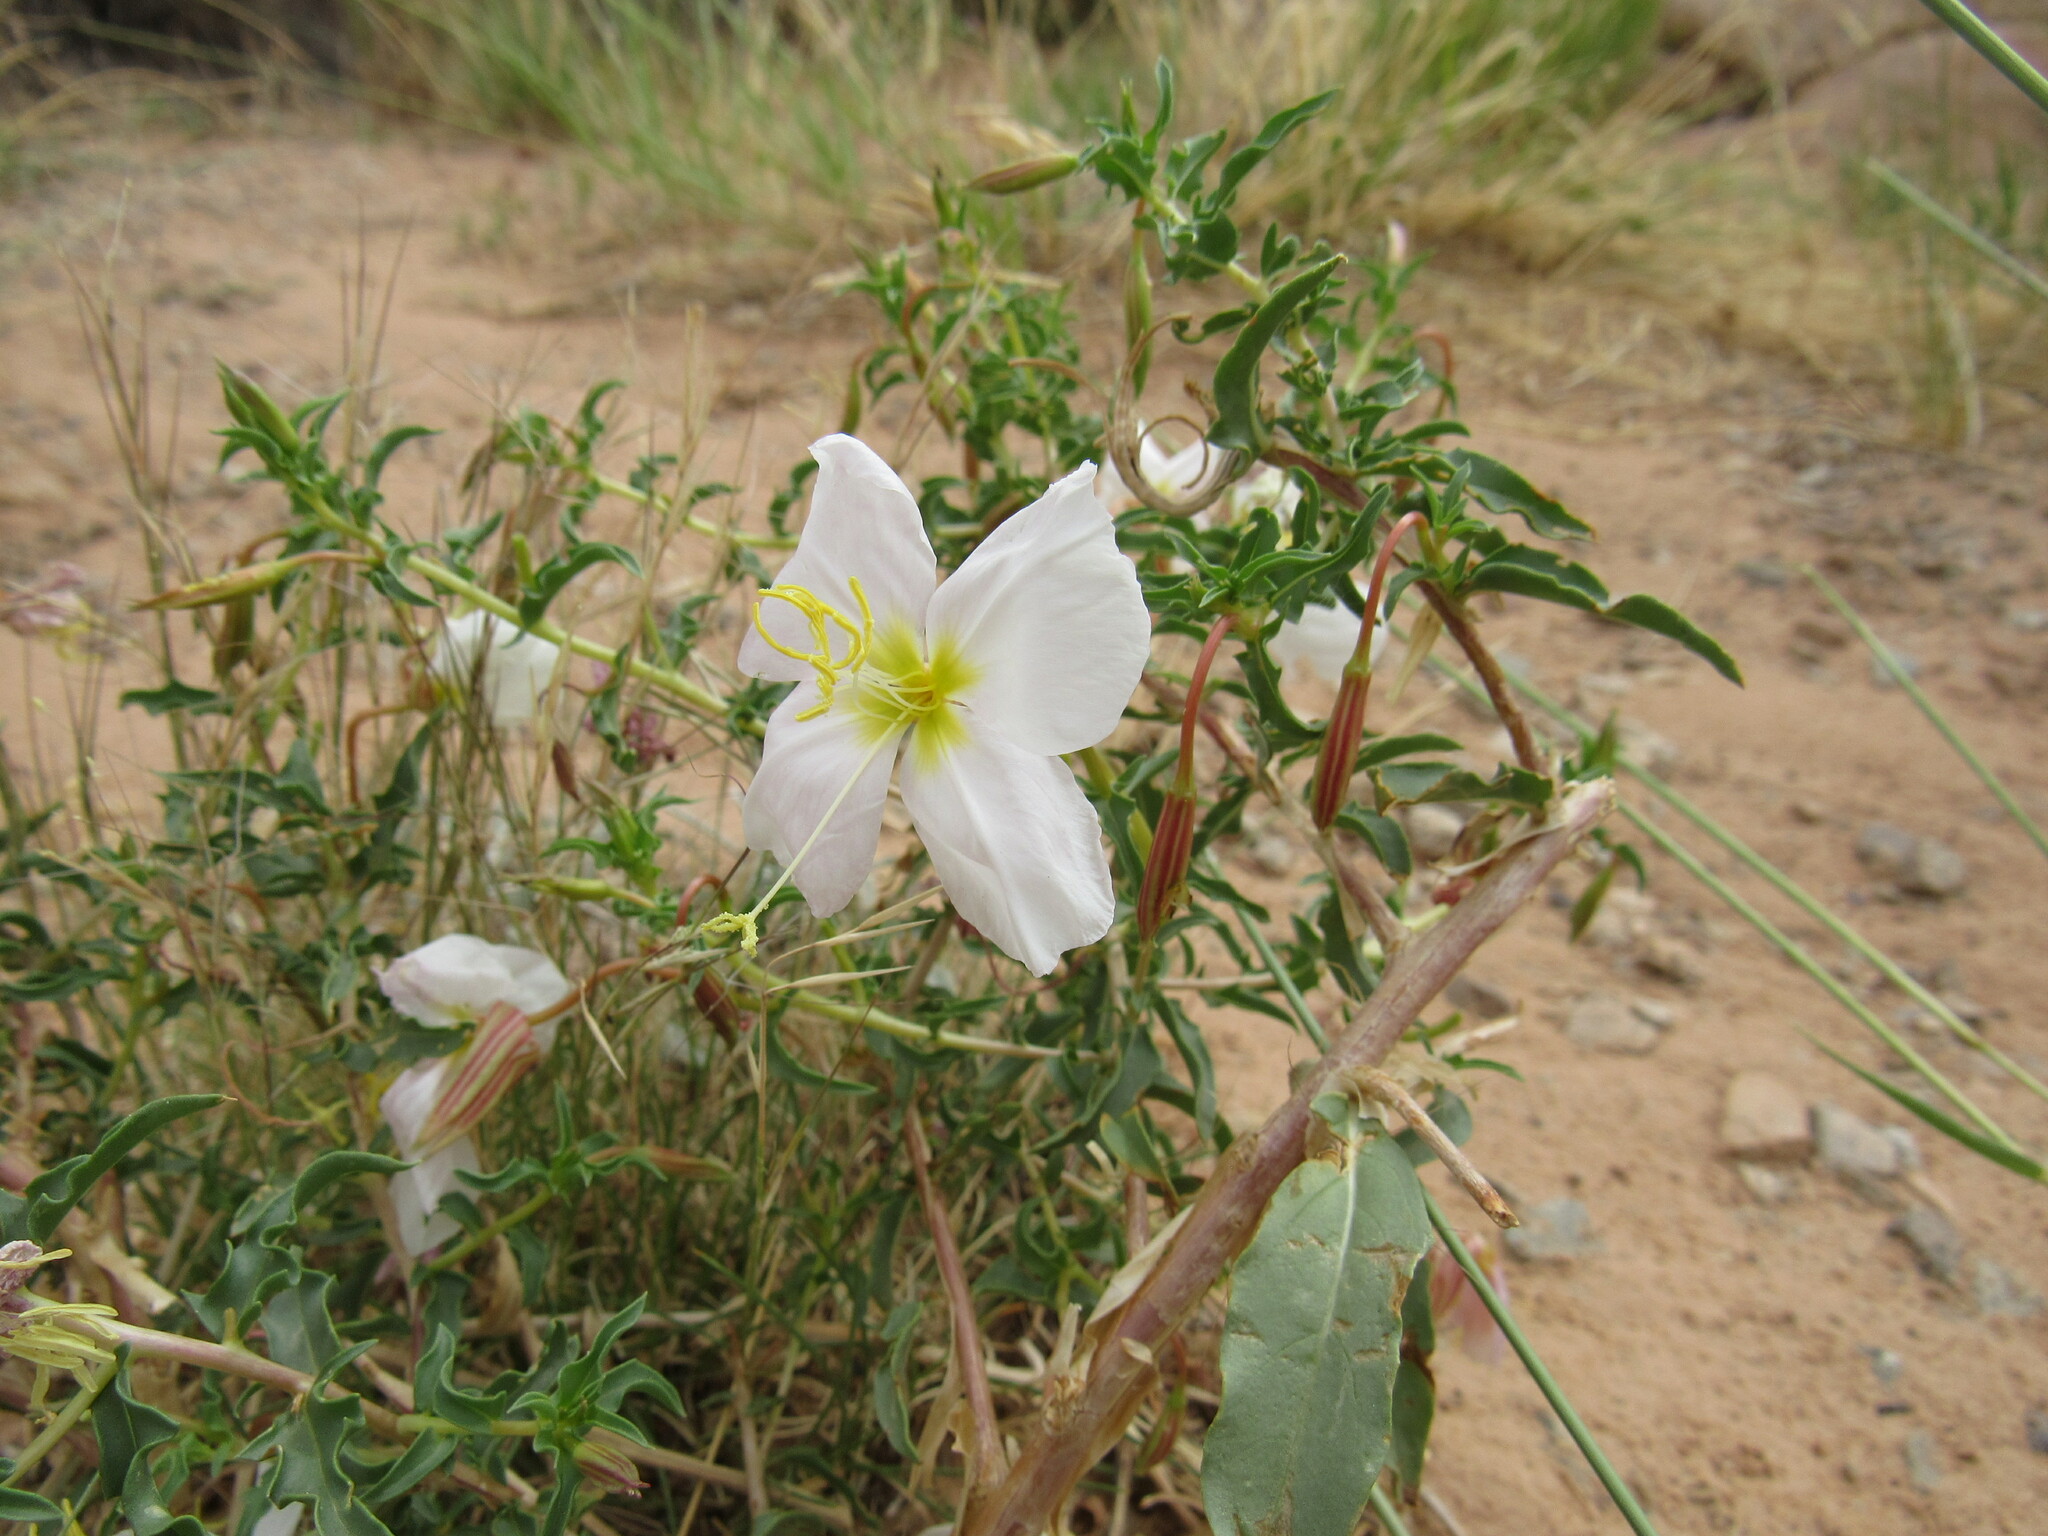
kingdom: Plantae
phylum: Tracheophyta
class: Magnoliopsida
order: Myrtales
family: Onagraceae
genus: Oenothera
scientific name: Oenothera pallida
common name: Pale evening-primrose
